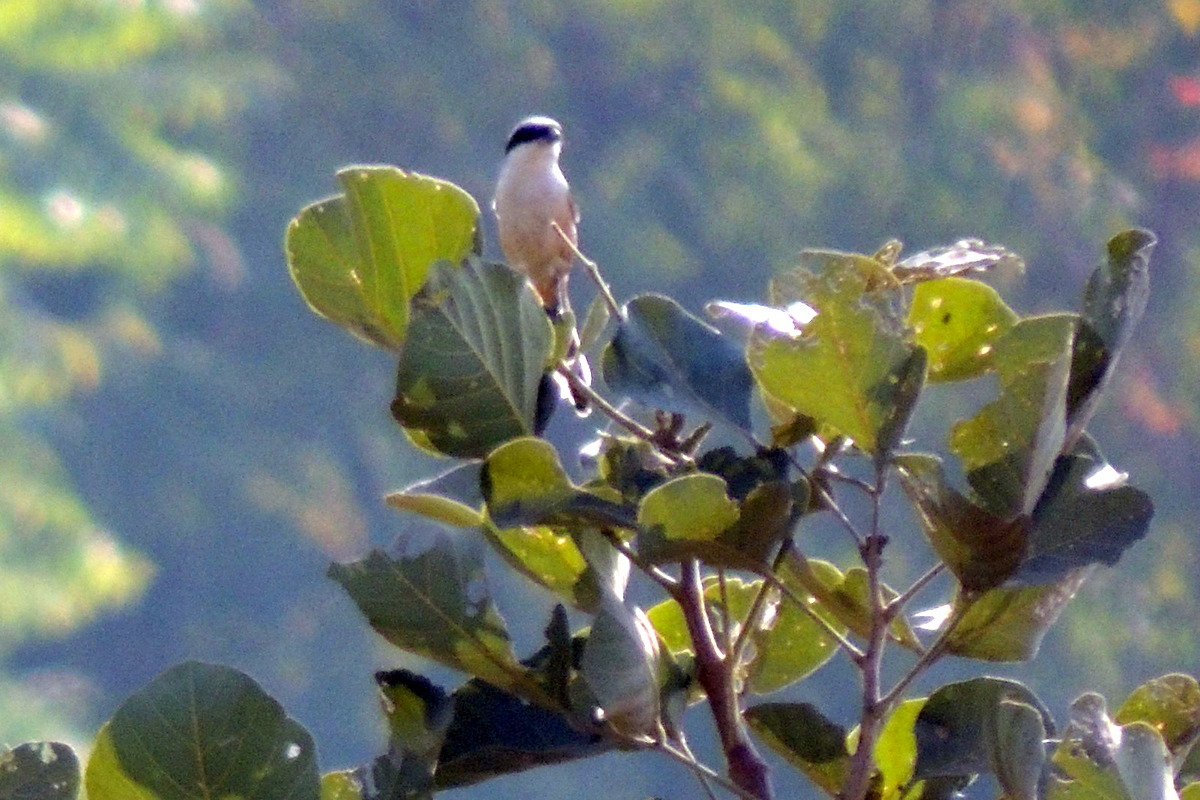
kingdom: Animalia
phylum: Chordata
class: Aves
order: Passeriformes
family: Laniidae
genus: Lanius
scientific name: Lanius schach
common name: Long-tailed shrike
